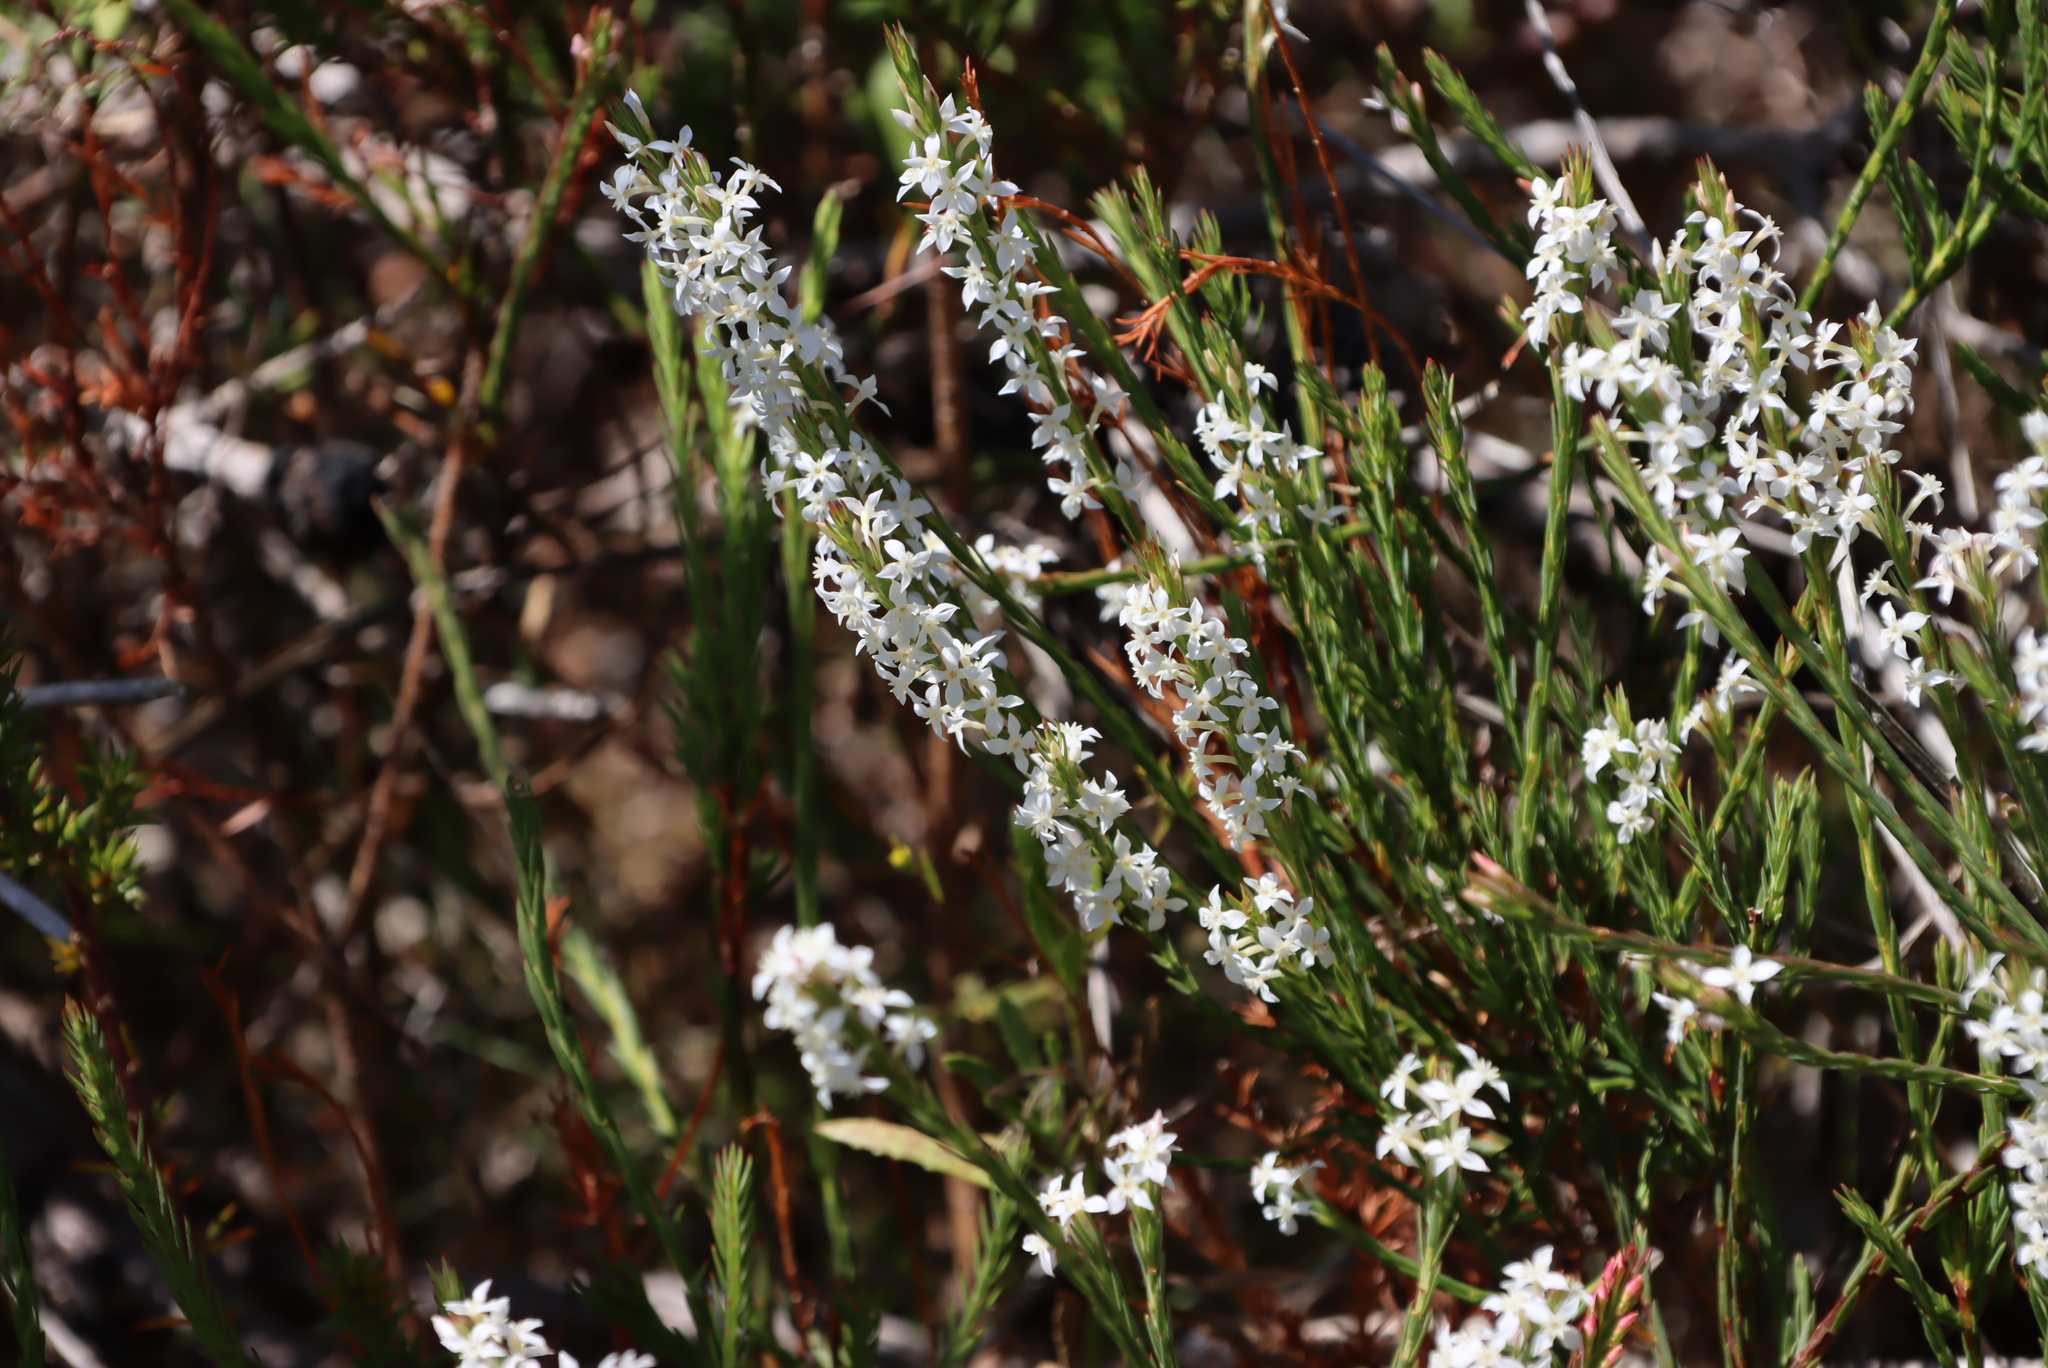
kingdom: Plantae
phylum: Tracheophyta
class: Magnoliopsida
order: Malvales
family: Thymelaeaceae
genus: Struthiola
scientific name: Struthiola dodecandra
